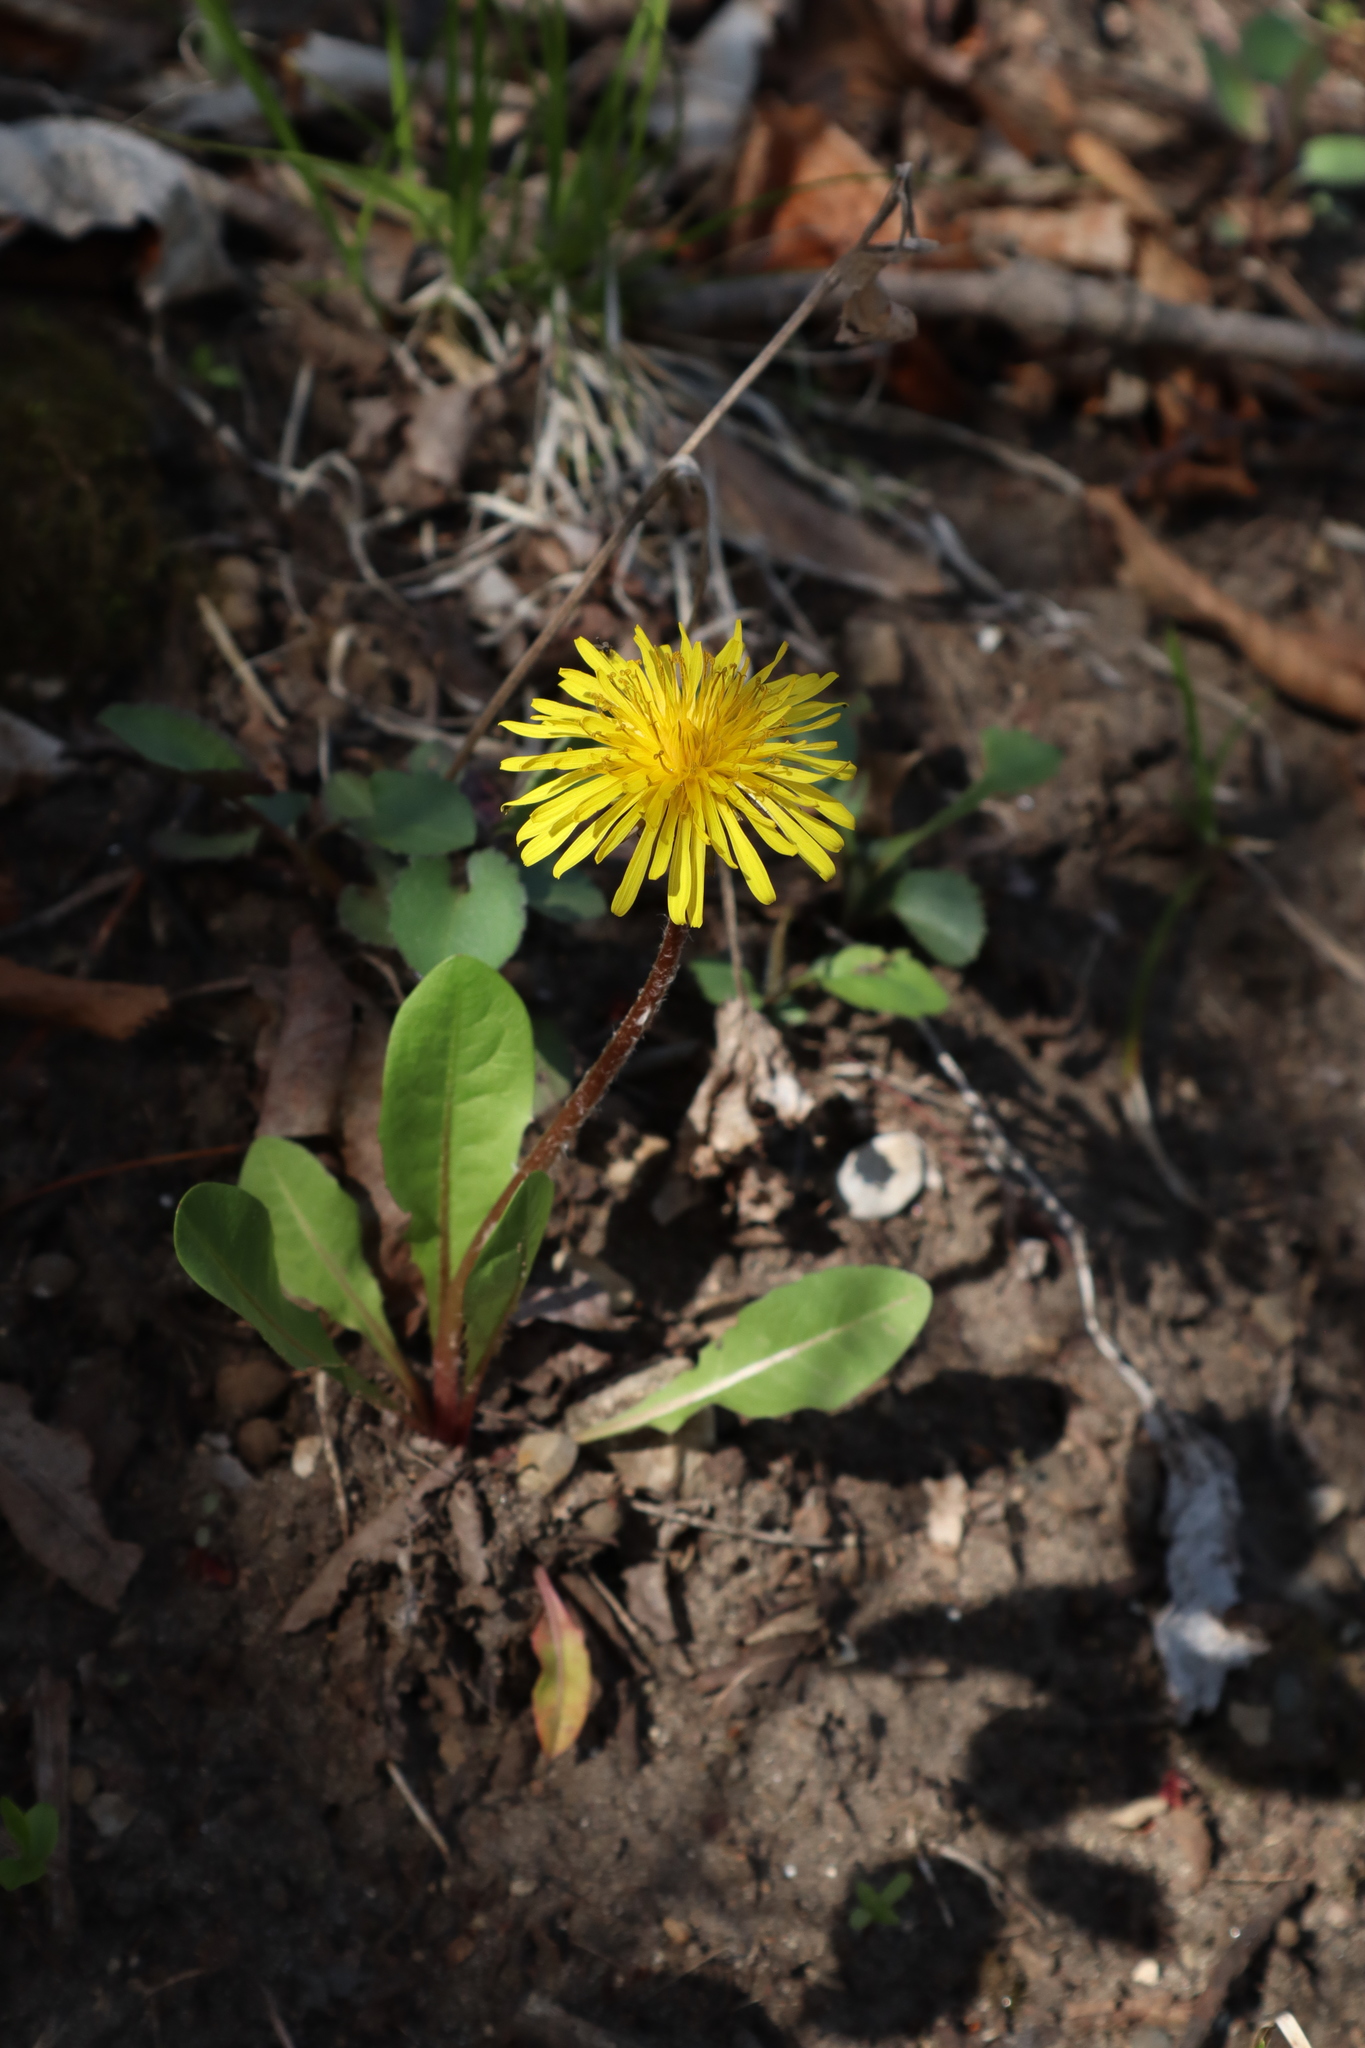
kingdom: Plantae
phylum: Tracheophyta
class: Magnoliopsida
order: Asterales
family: Asteraceae
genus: Taraxacum
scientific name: Taraxacum officinale
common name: Common dandelion
